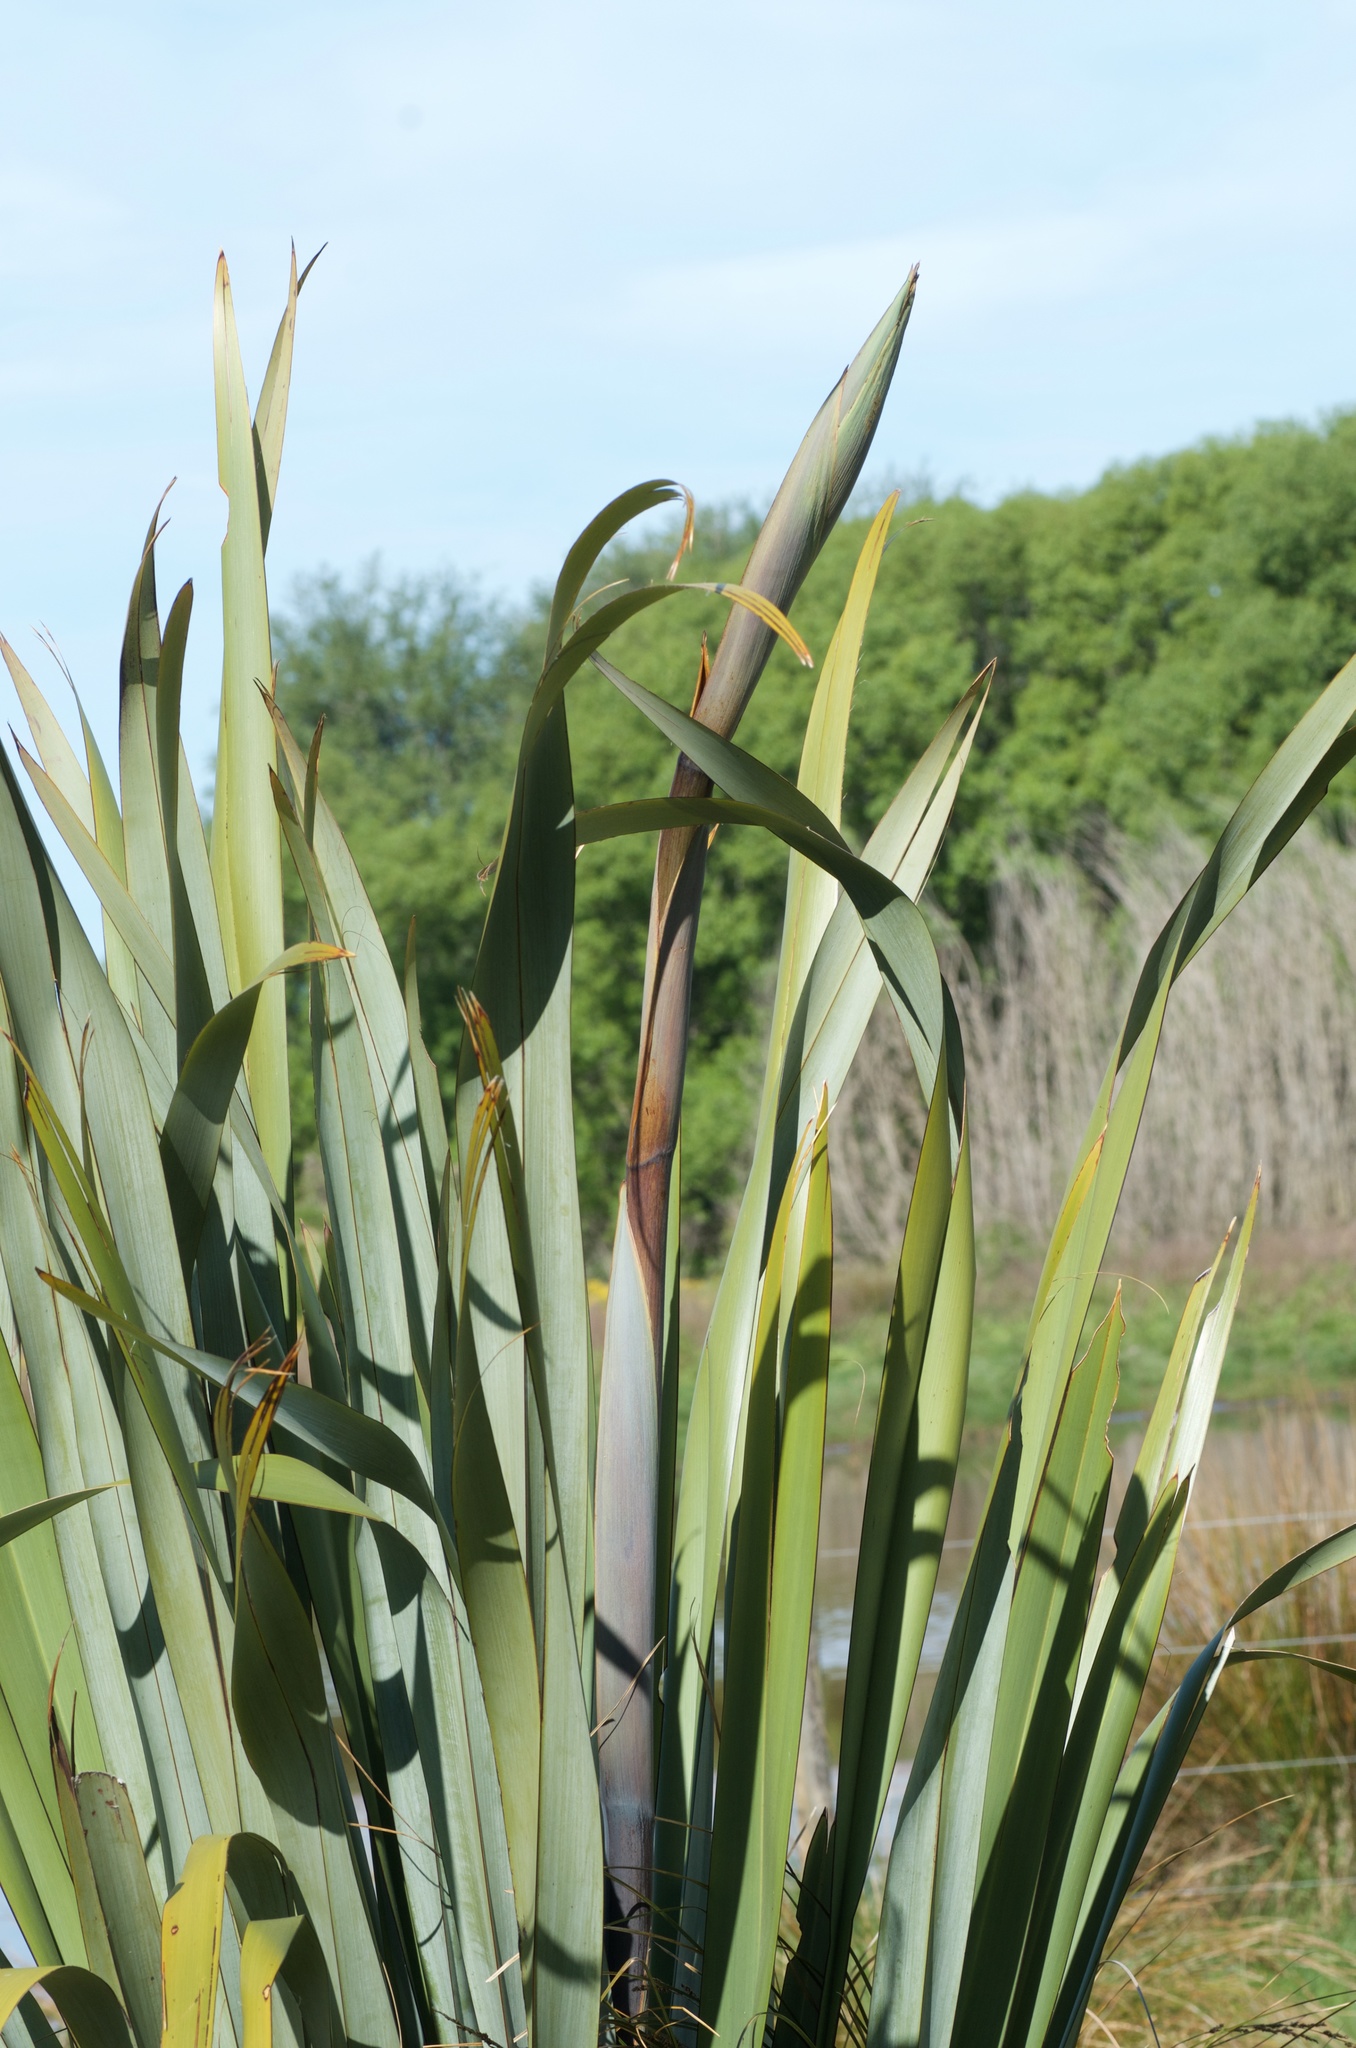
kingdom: Plantae
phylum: Tracheophyta
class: Liliopsida
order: Asparagales
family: Asphodelaceae
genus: Phormium
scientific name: Phormium tenax
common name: New zealand flax
